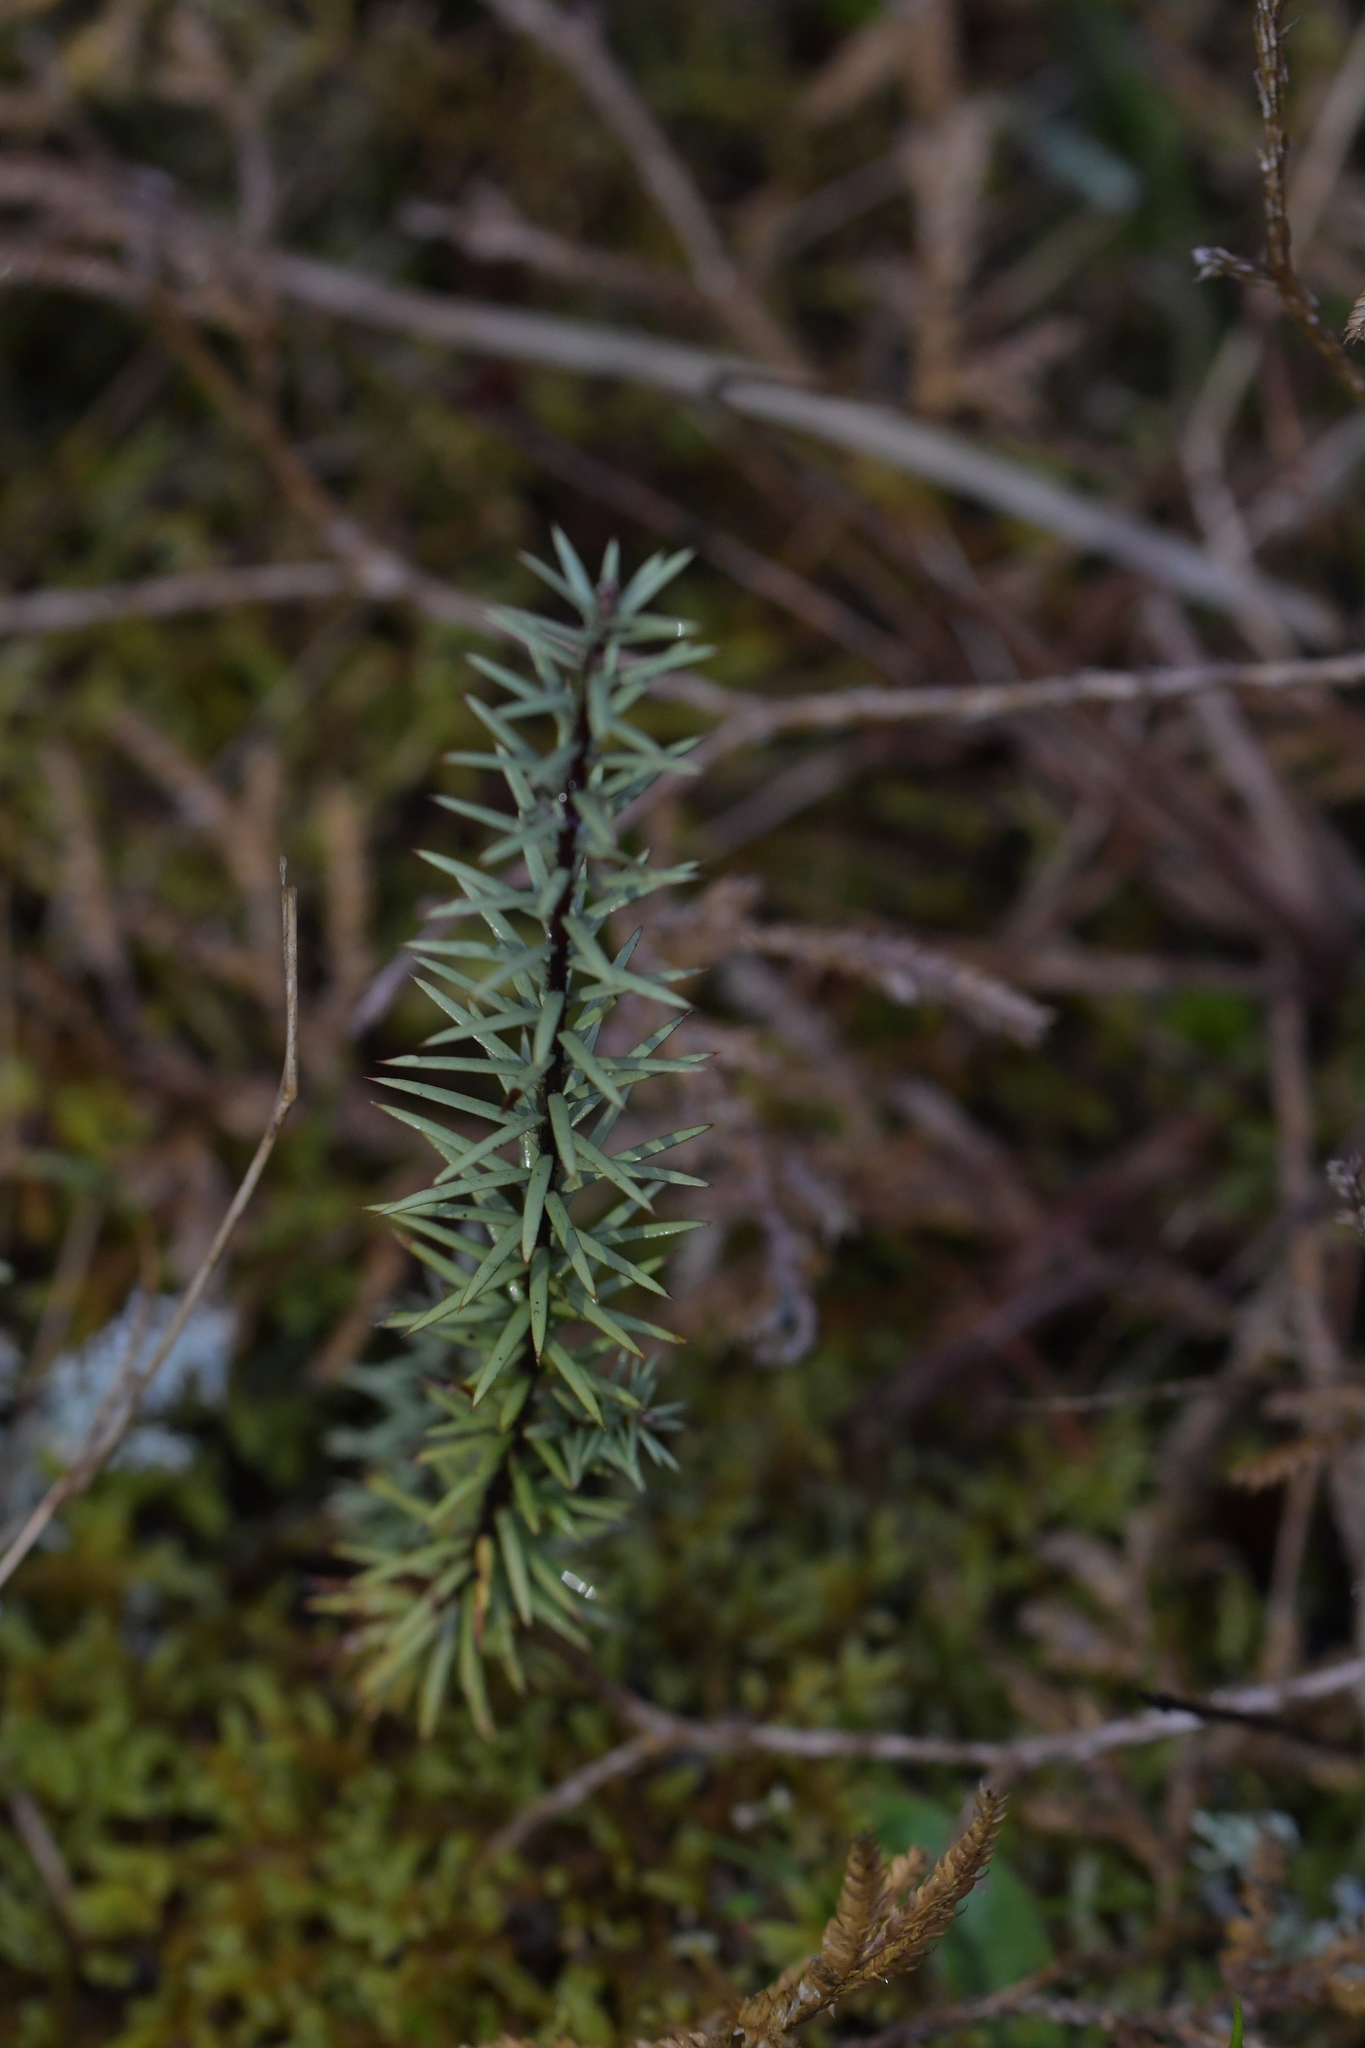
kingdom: Plantae
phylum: Tracheophyta
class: Magnoliopsida
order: Ericales
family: Ericaceae
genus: Leptecophylla
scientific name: Leptecophylla juniperina
